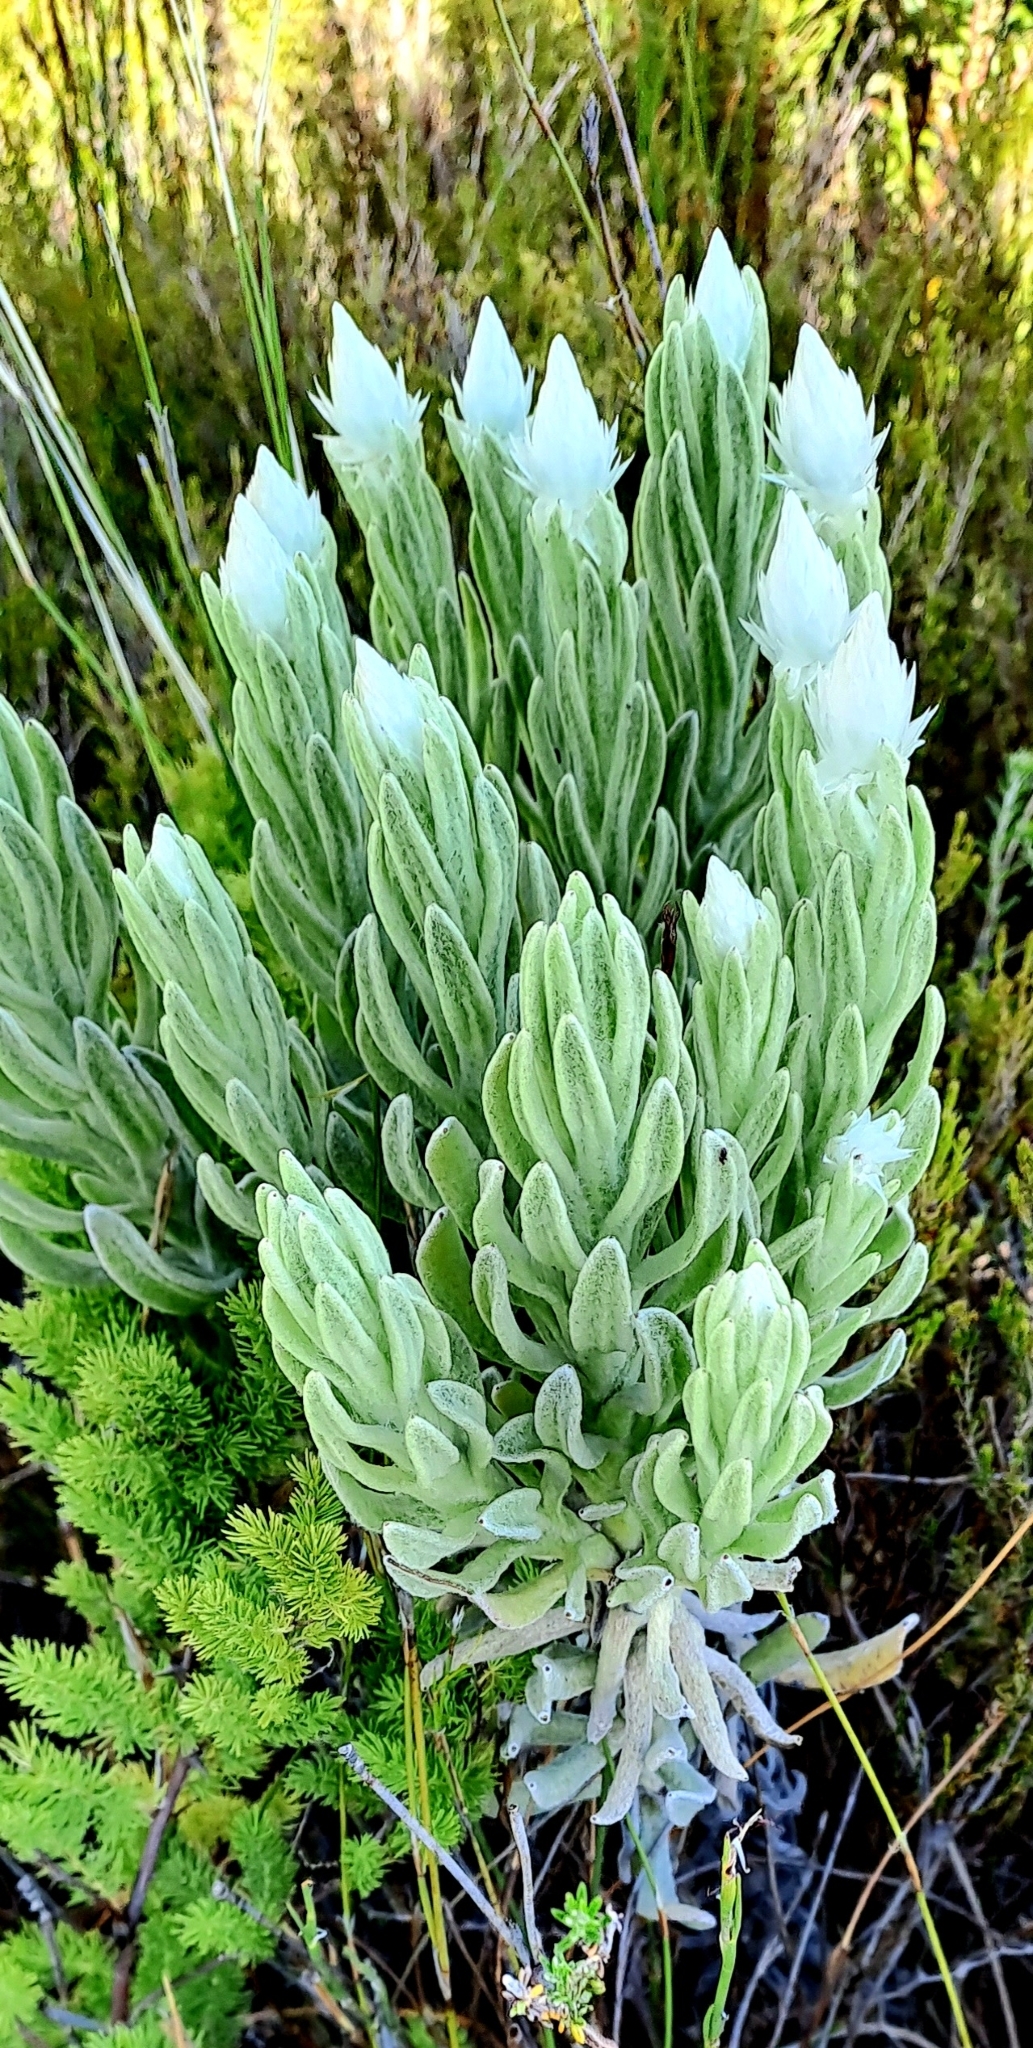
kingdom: Plantae
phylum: Tracheophyta
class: Magnoliopsida
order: Asterales
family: Asteraceae
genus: Syncarpha
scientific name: Syncarpha vestita
